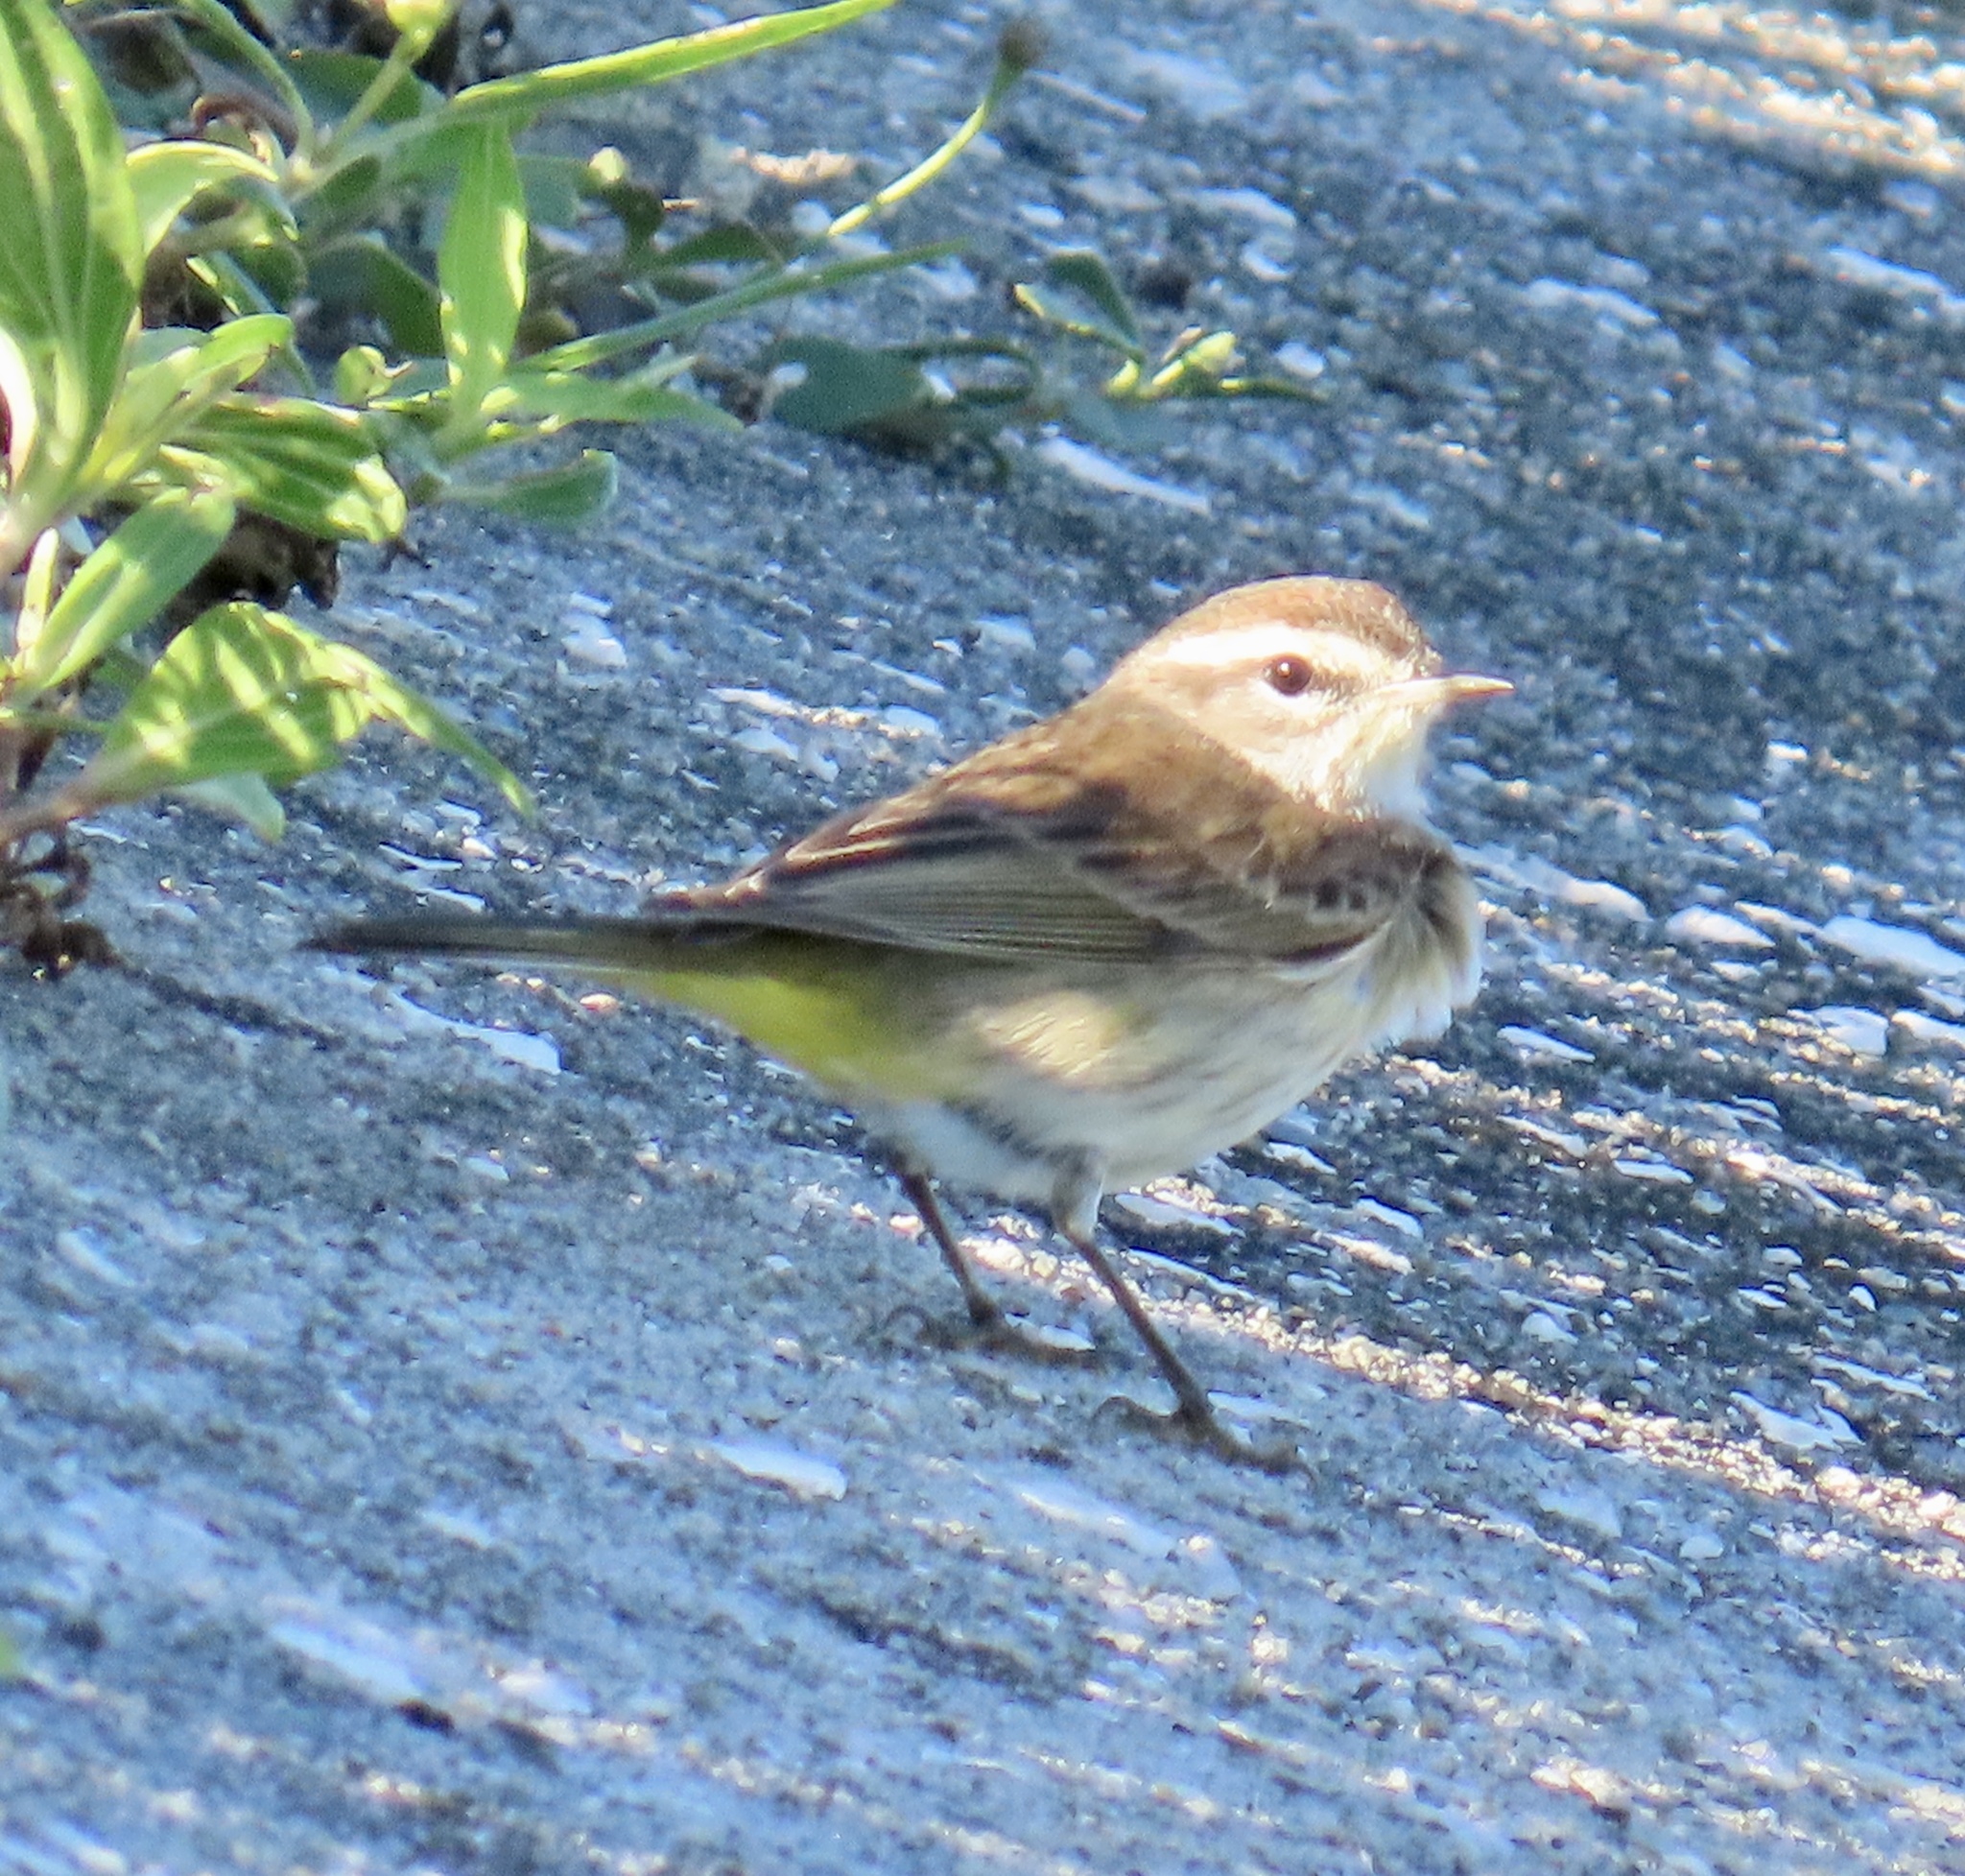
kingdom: Animalia
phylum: Chordata
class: Aves
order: Passeriformes
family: Parulidae
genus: Setophaga
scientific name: Setophaga palmarum
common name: Palm warbler
